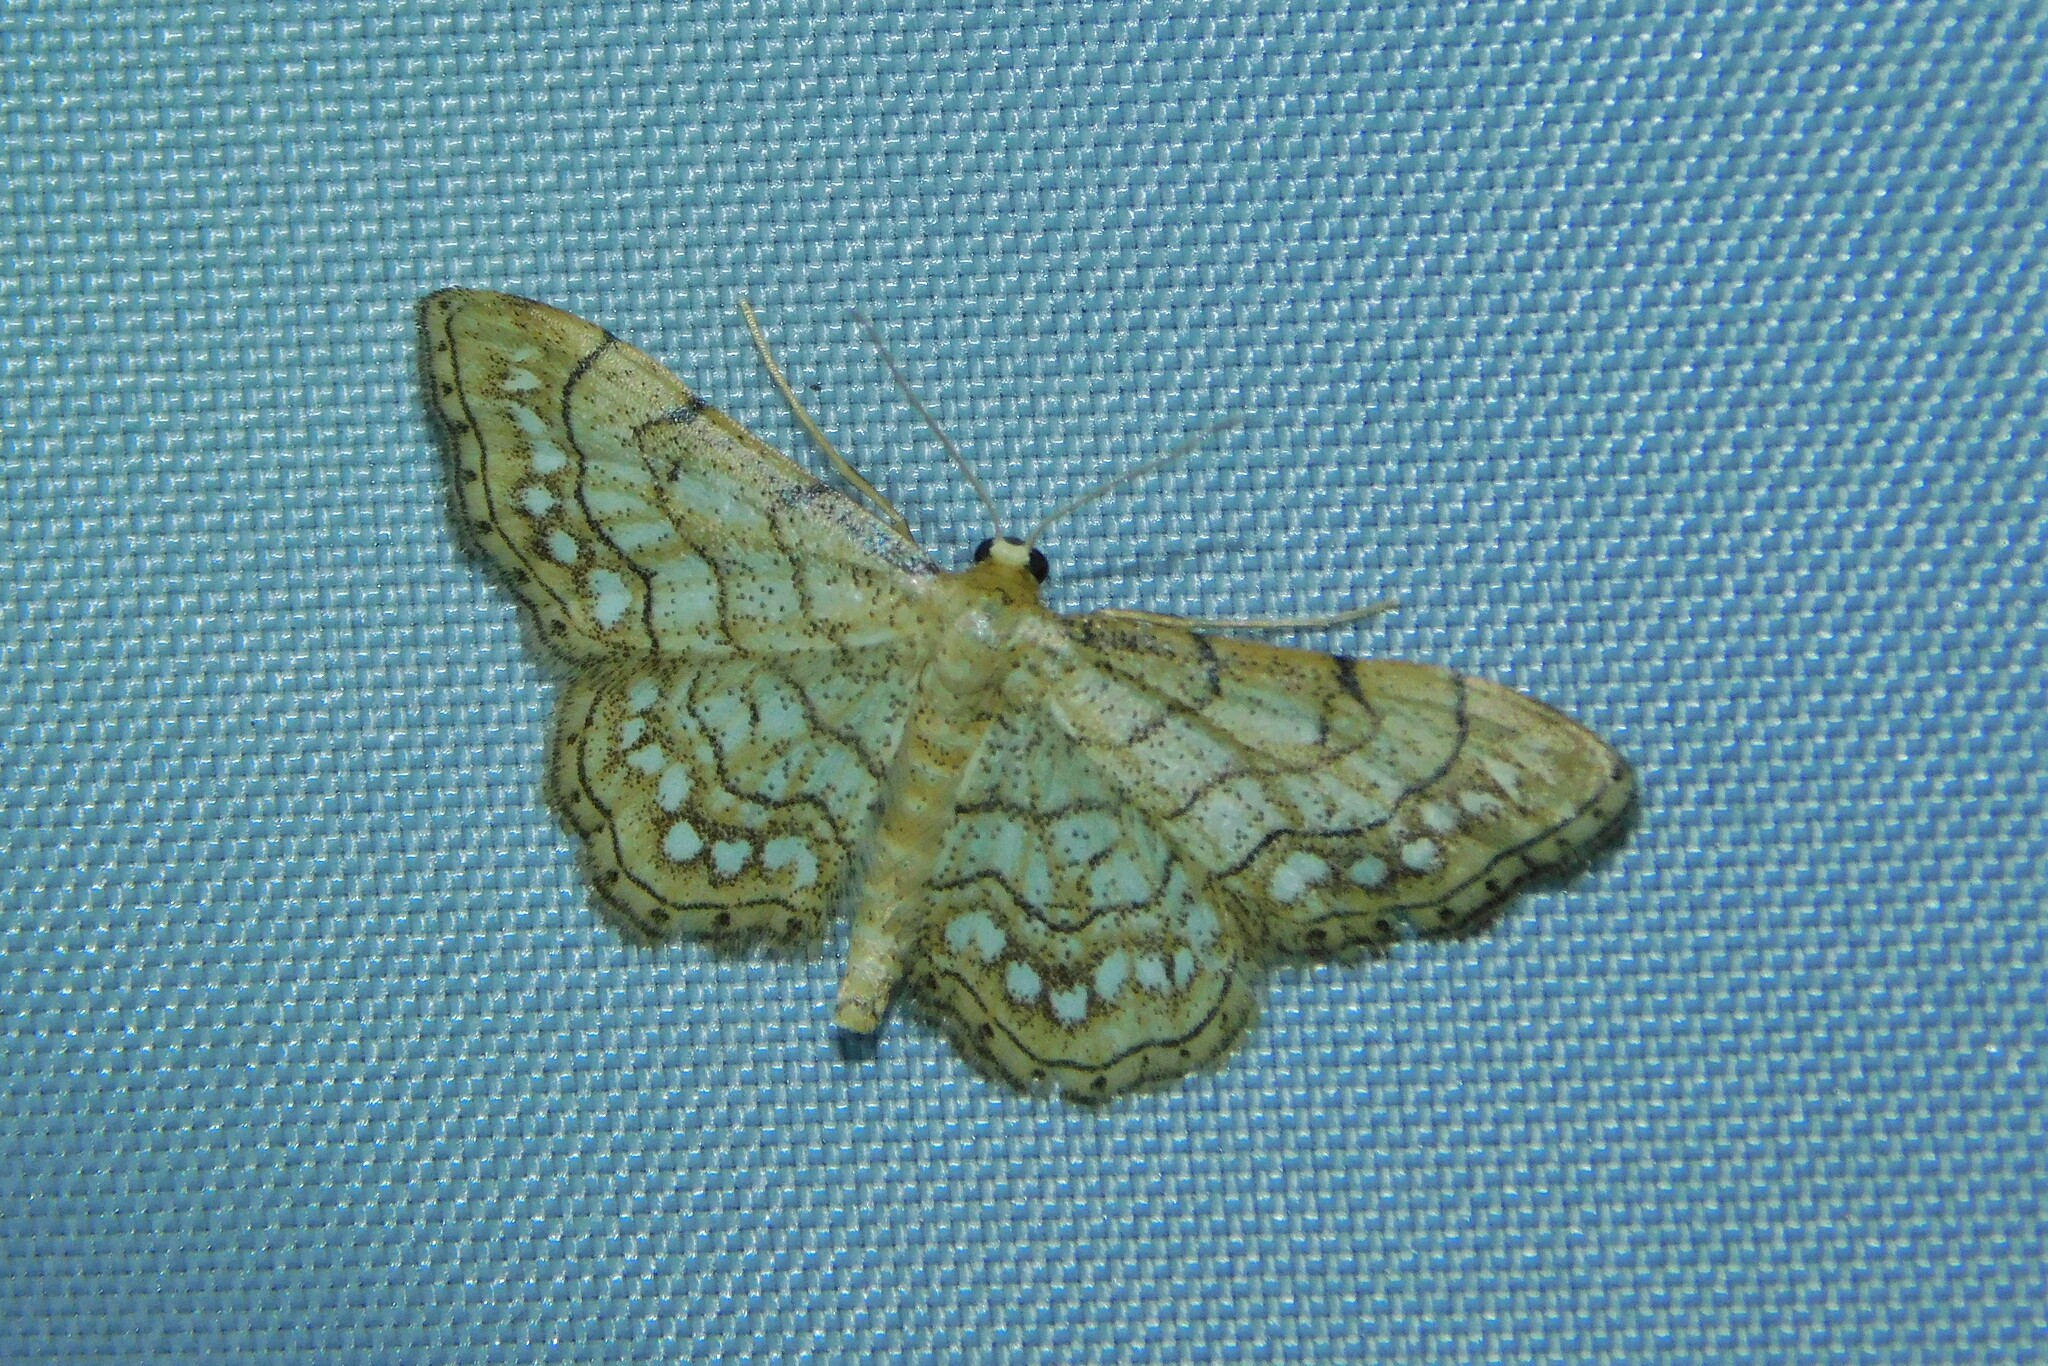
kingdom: Animalia
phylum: Arthropoda
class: Insecta
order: Lepidoptera
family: Geometridae
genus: Idaea
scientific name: Idaea moniliata
